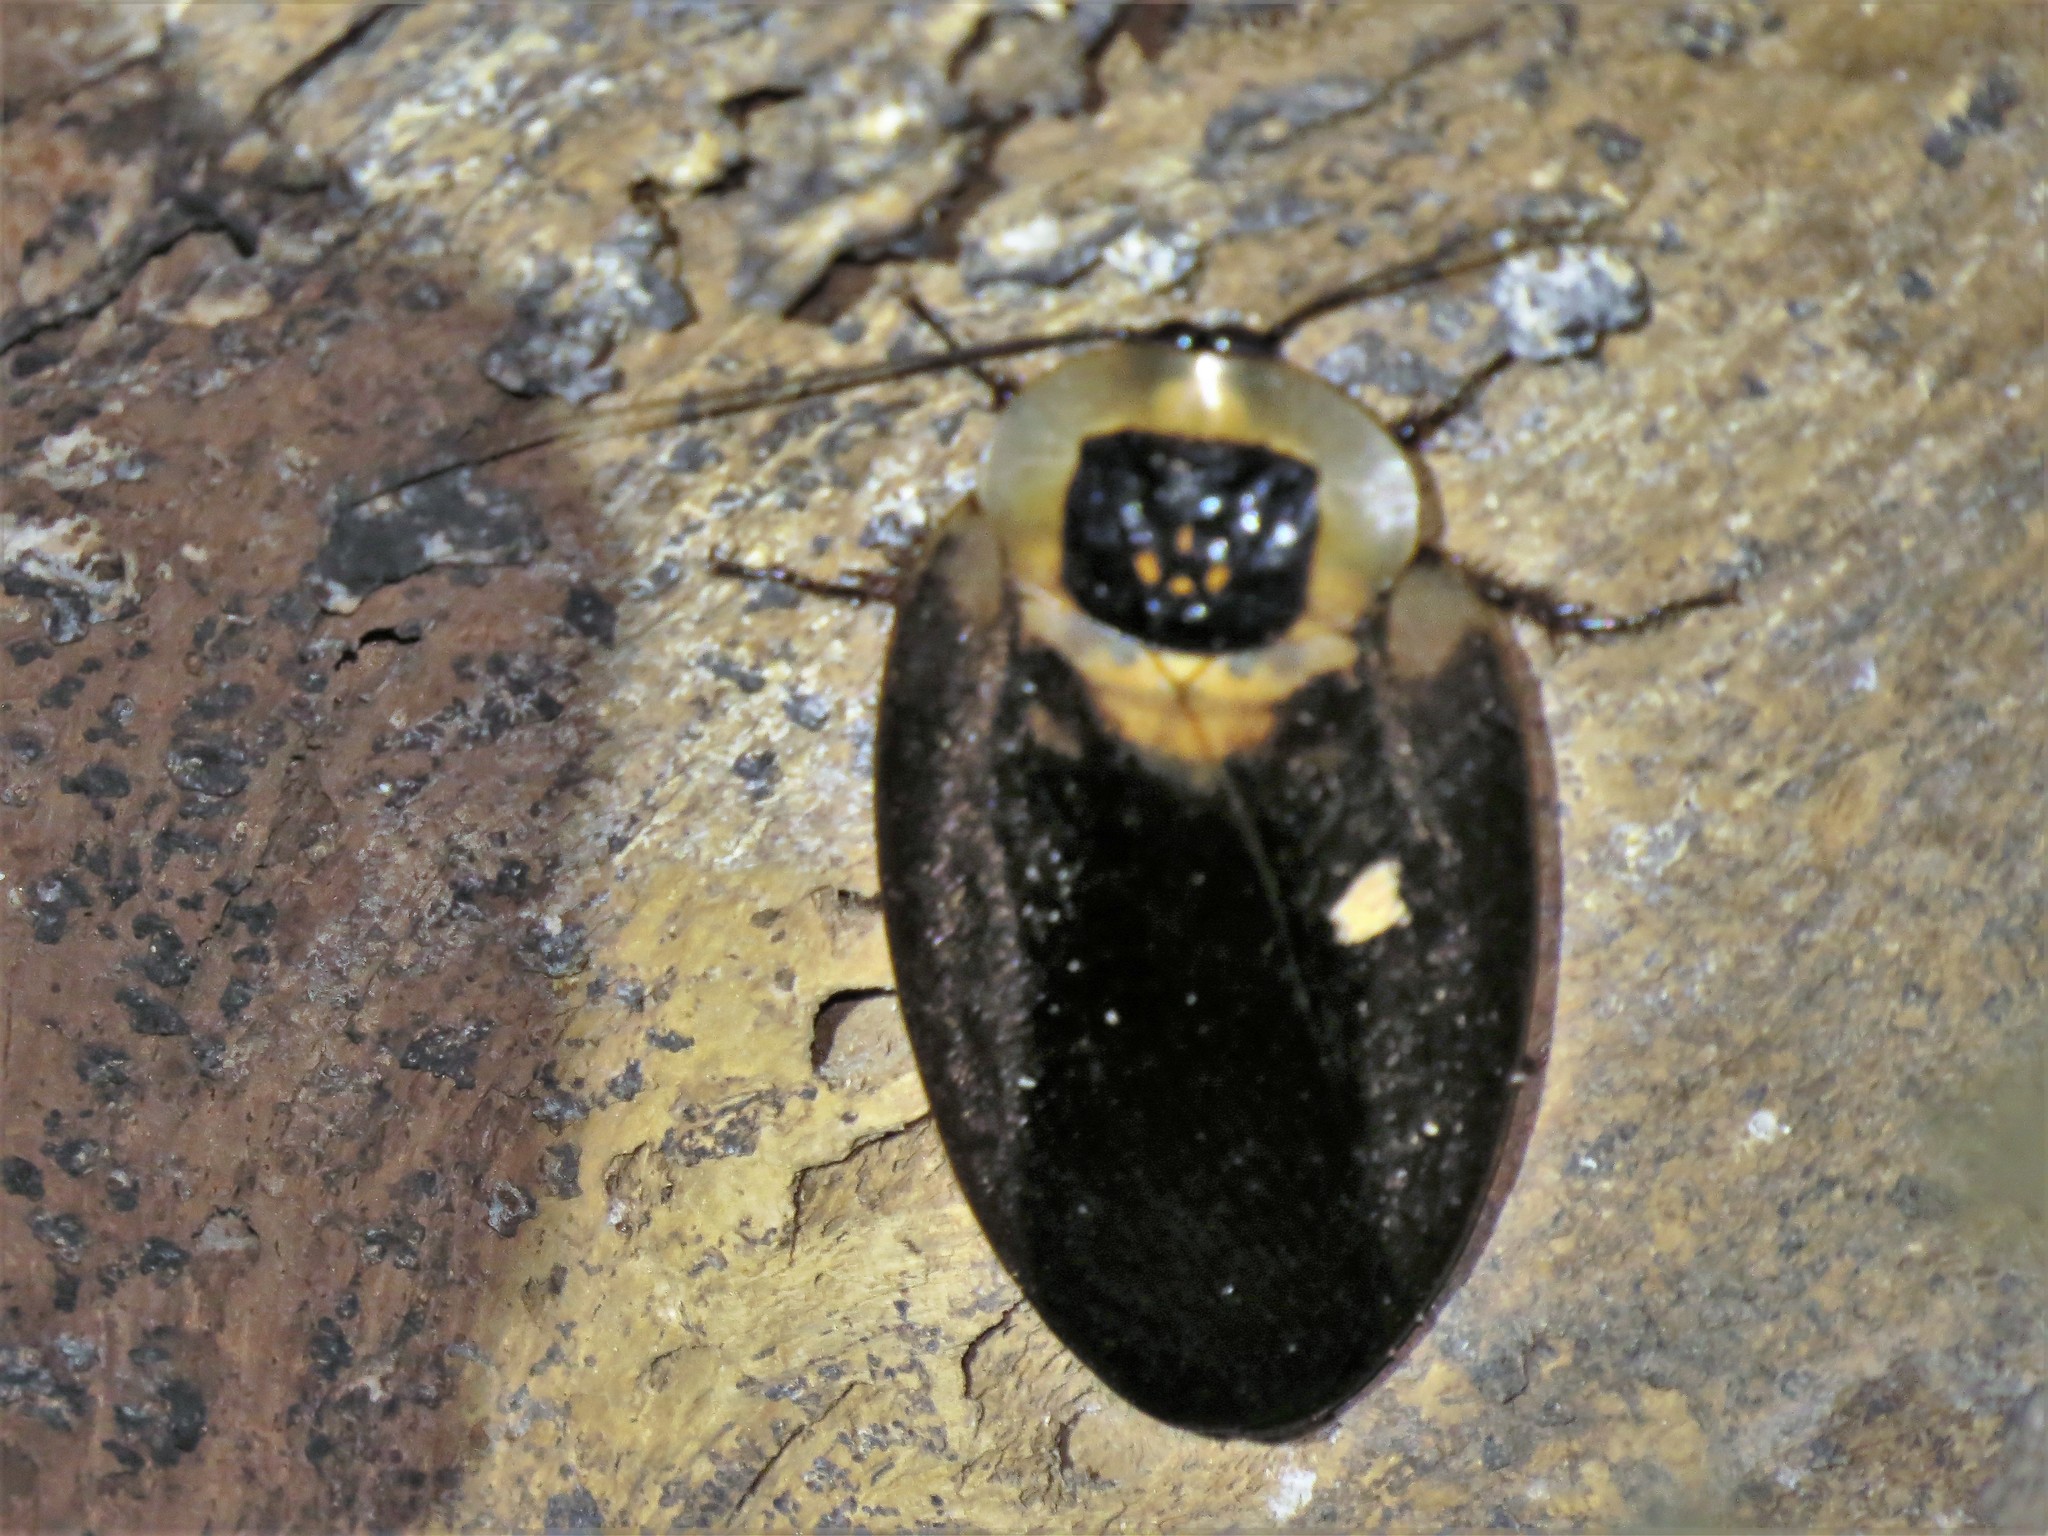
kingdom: Animalia
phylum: Arthropoda
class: Insecta
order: Blattodea
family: Blaberidae
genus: Blaberus
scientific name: Blaberus craniifer
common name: Death's head cockroach
